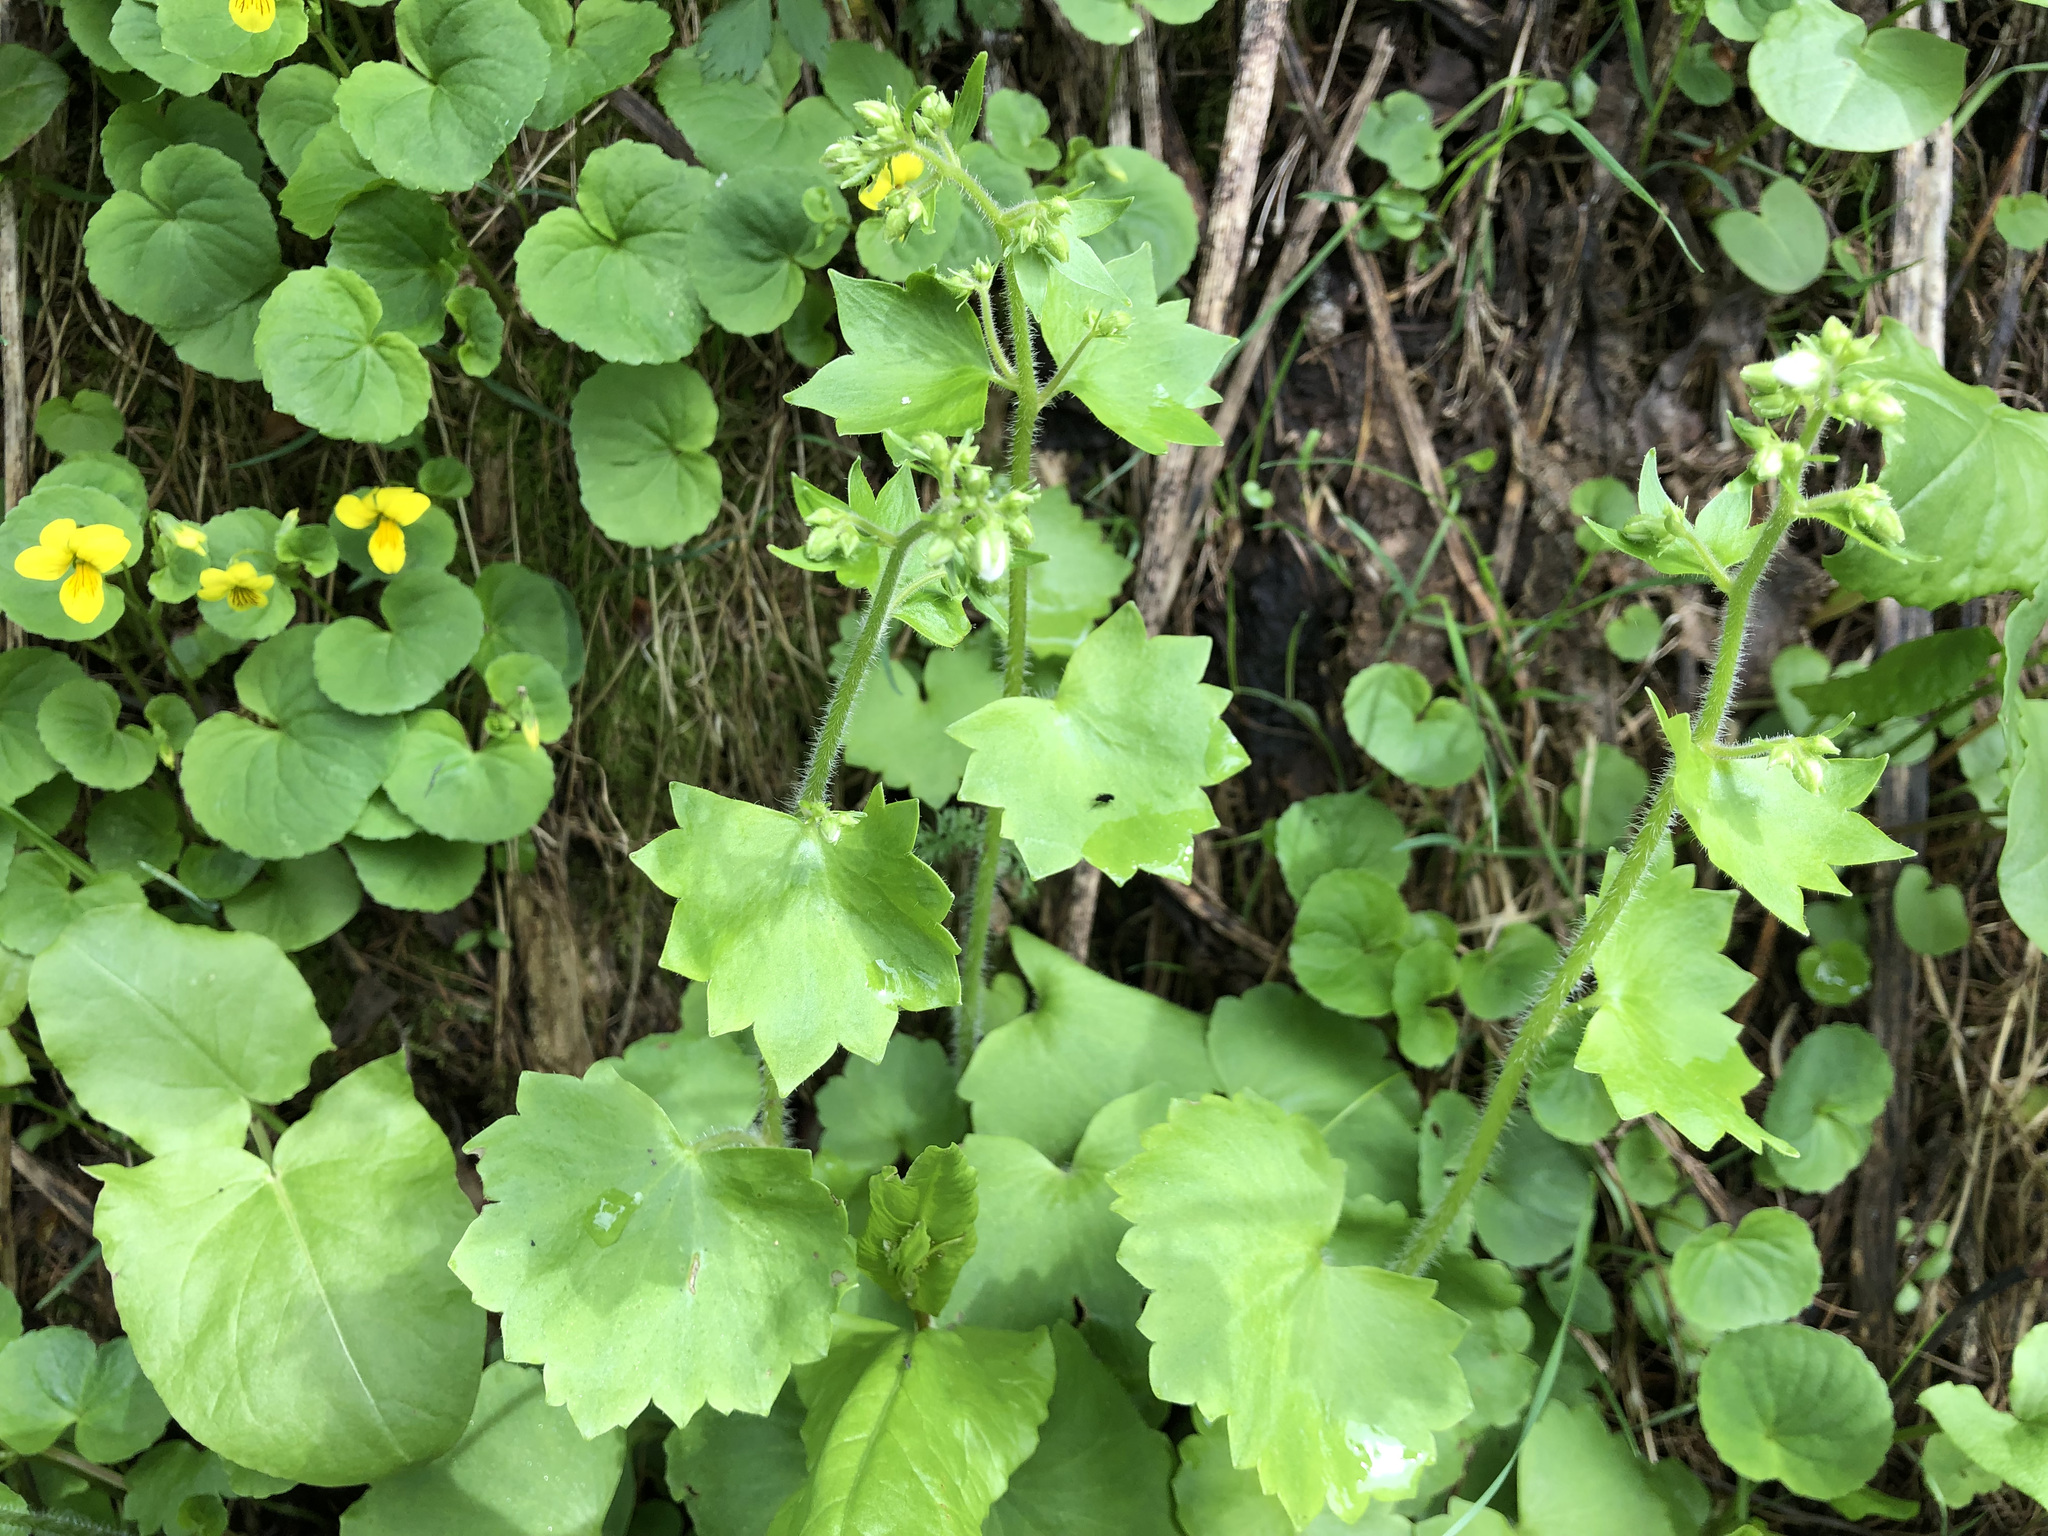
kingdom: Plantae
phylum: Tracheophyta
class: Magnoliopsida
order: Saxifragales
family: Saxifragaceae
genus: Saxifraga
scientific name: Saxifraga rotundifolia
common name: Round-leaved saxifrage
